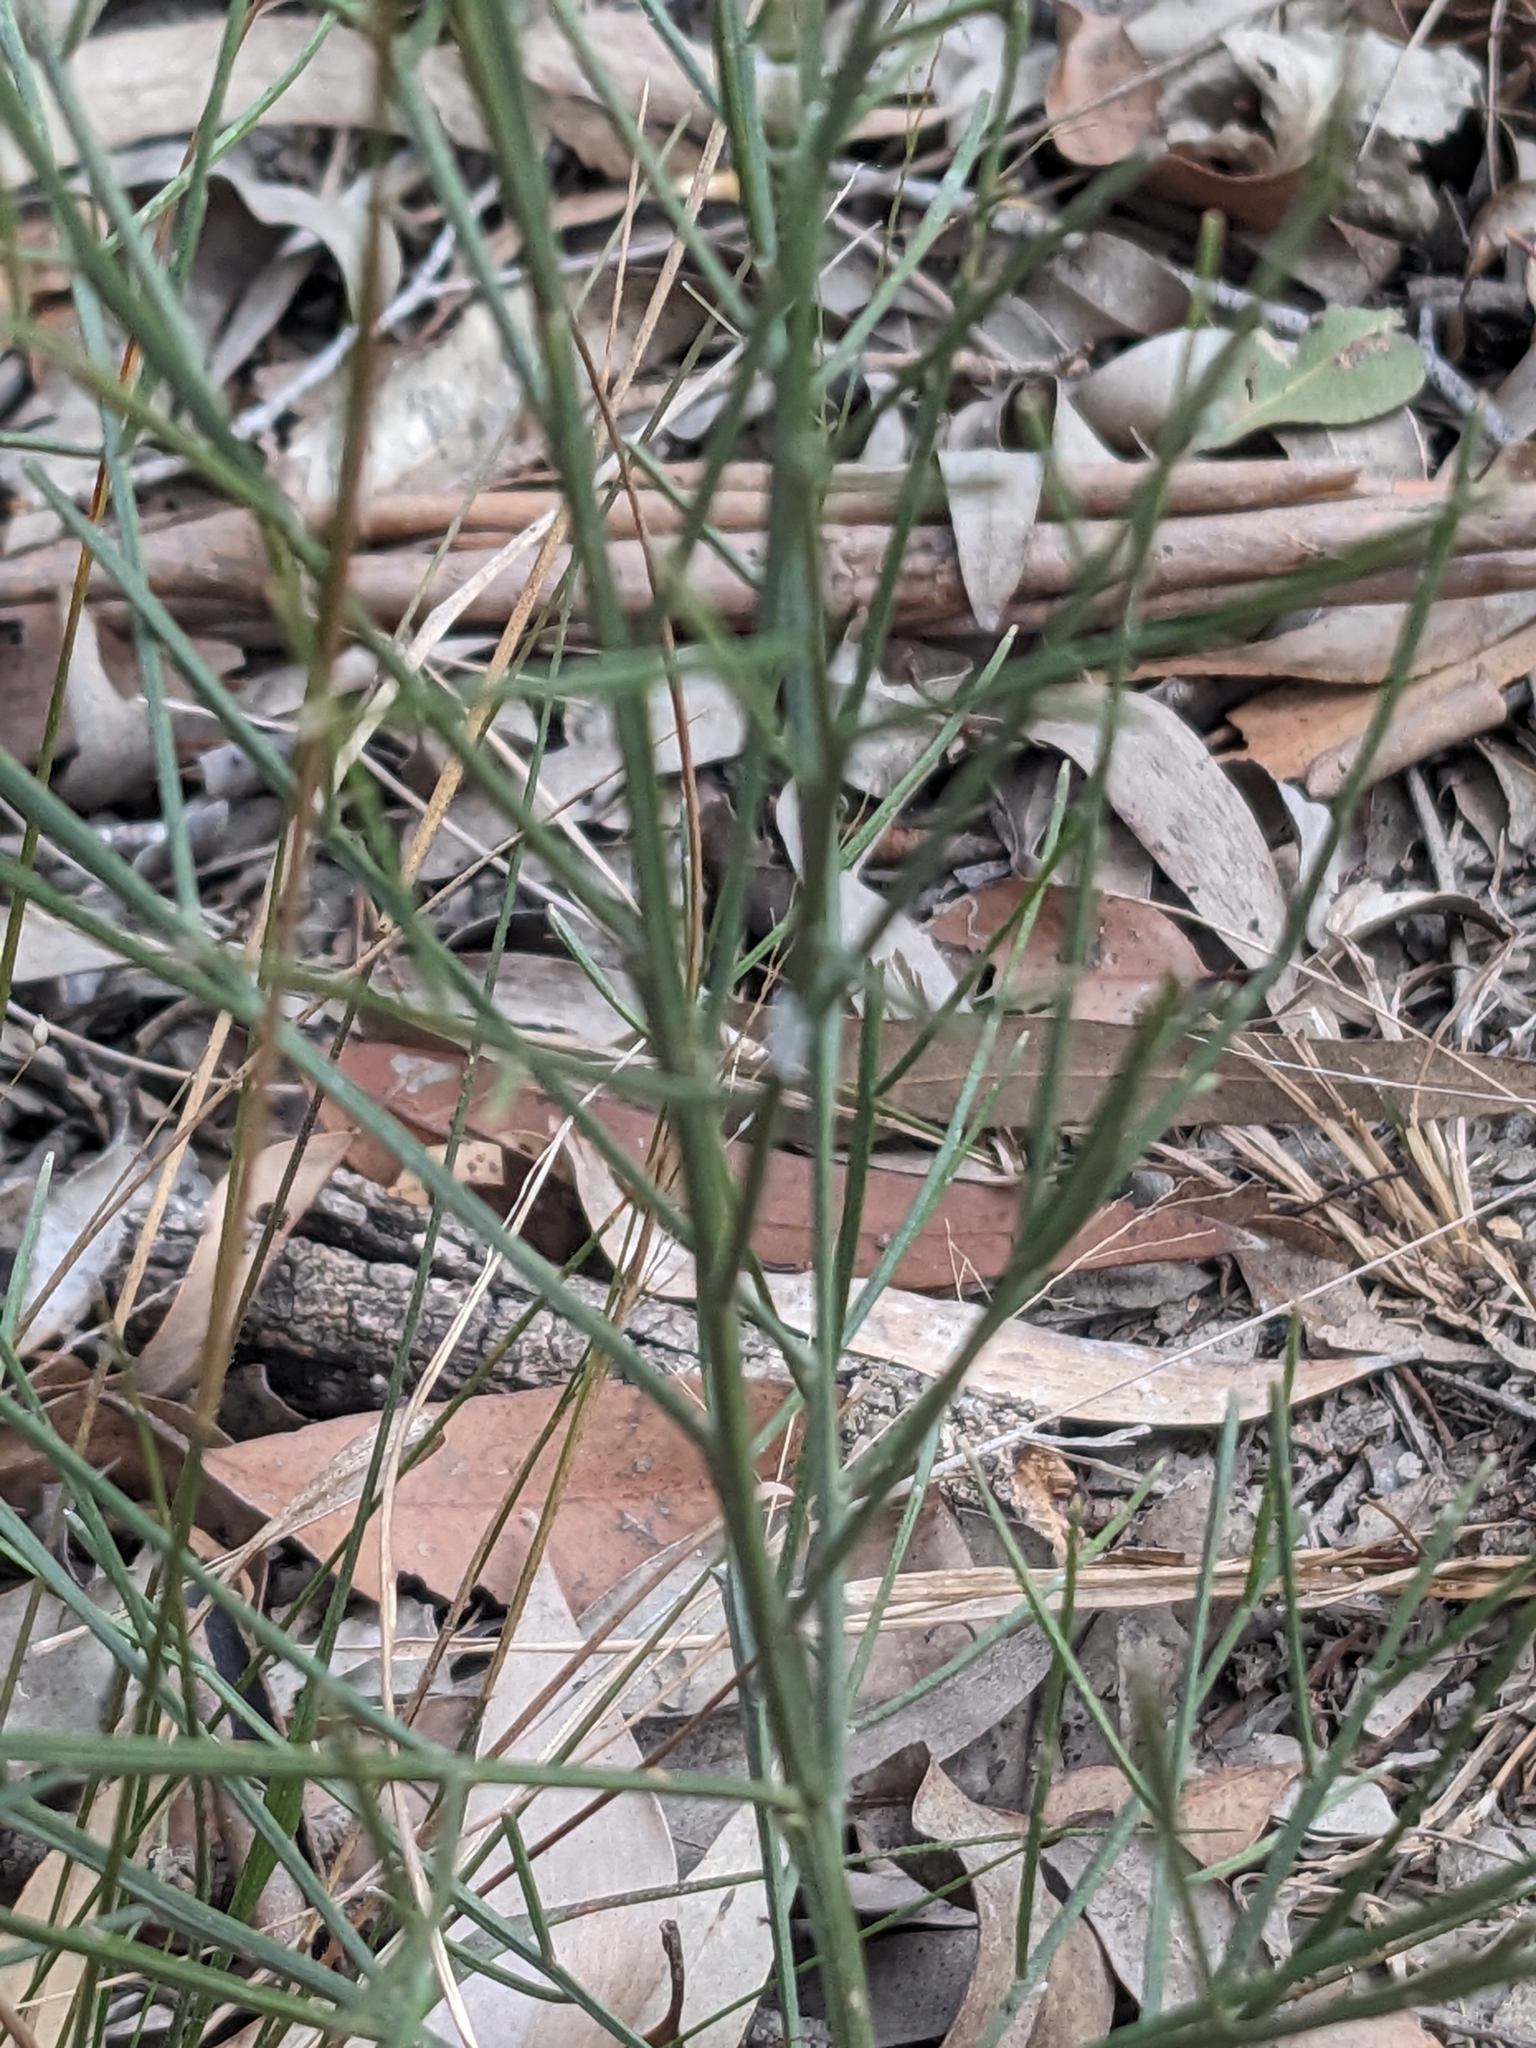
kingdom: Plantae
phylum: Tracheophyta
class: Magnoliopsida
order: Fabales
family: Fabaceae
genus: Jacksonia
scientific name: Jacksonia scoparia
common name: Dogwood
